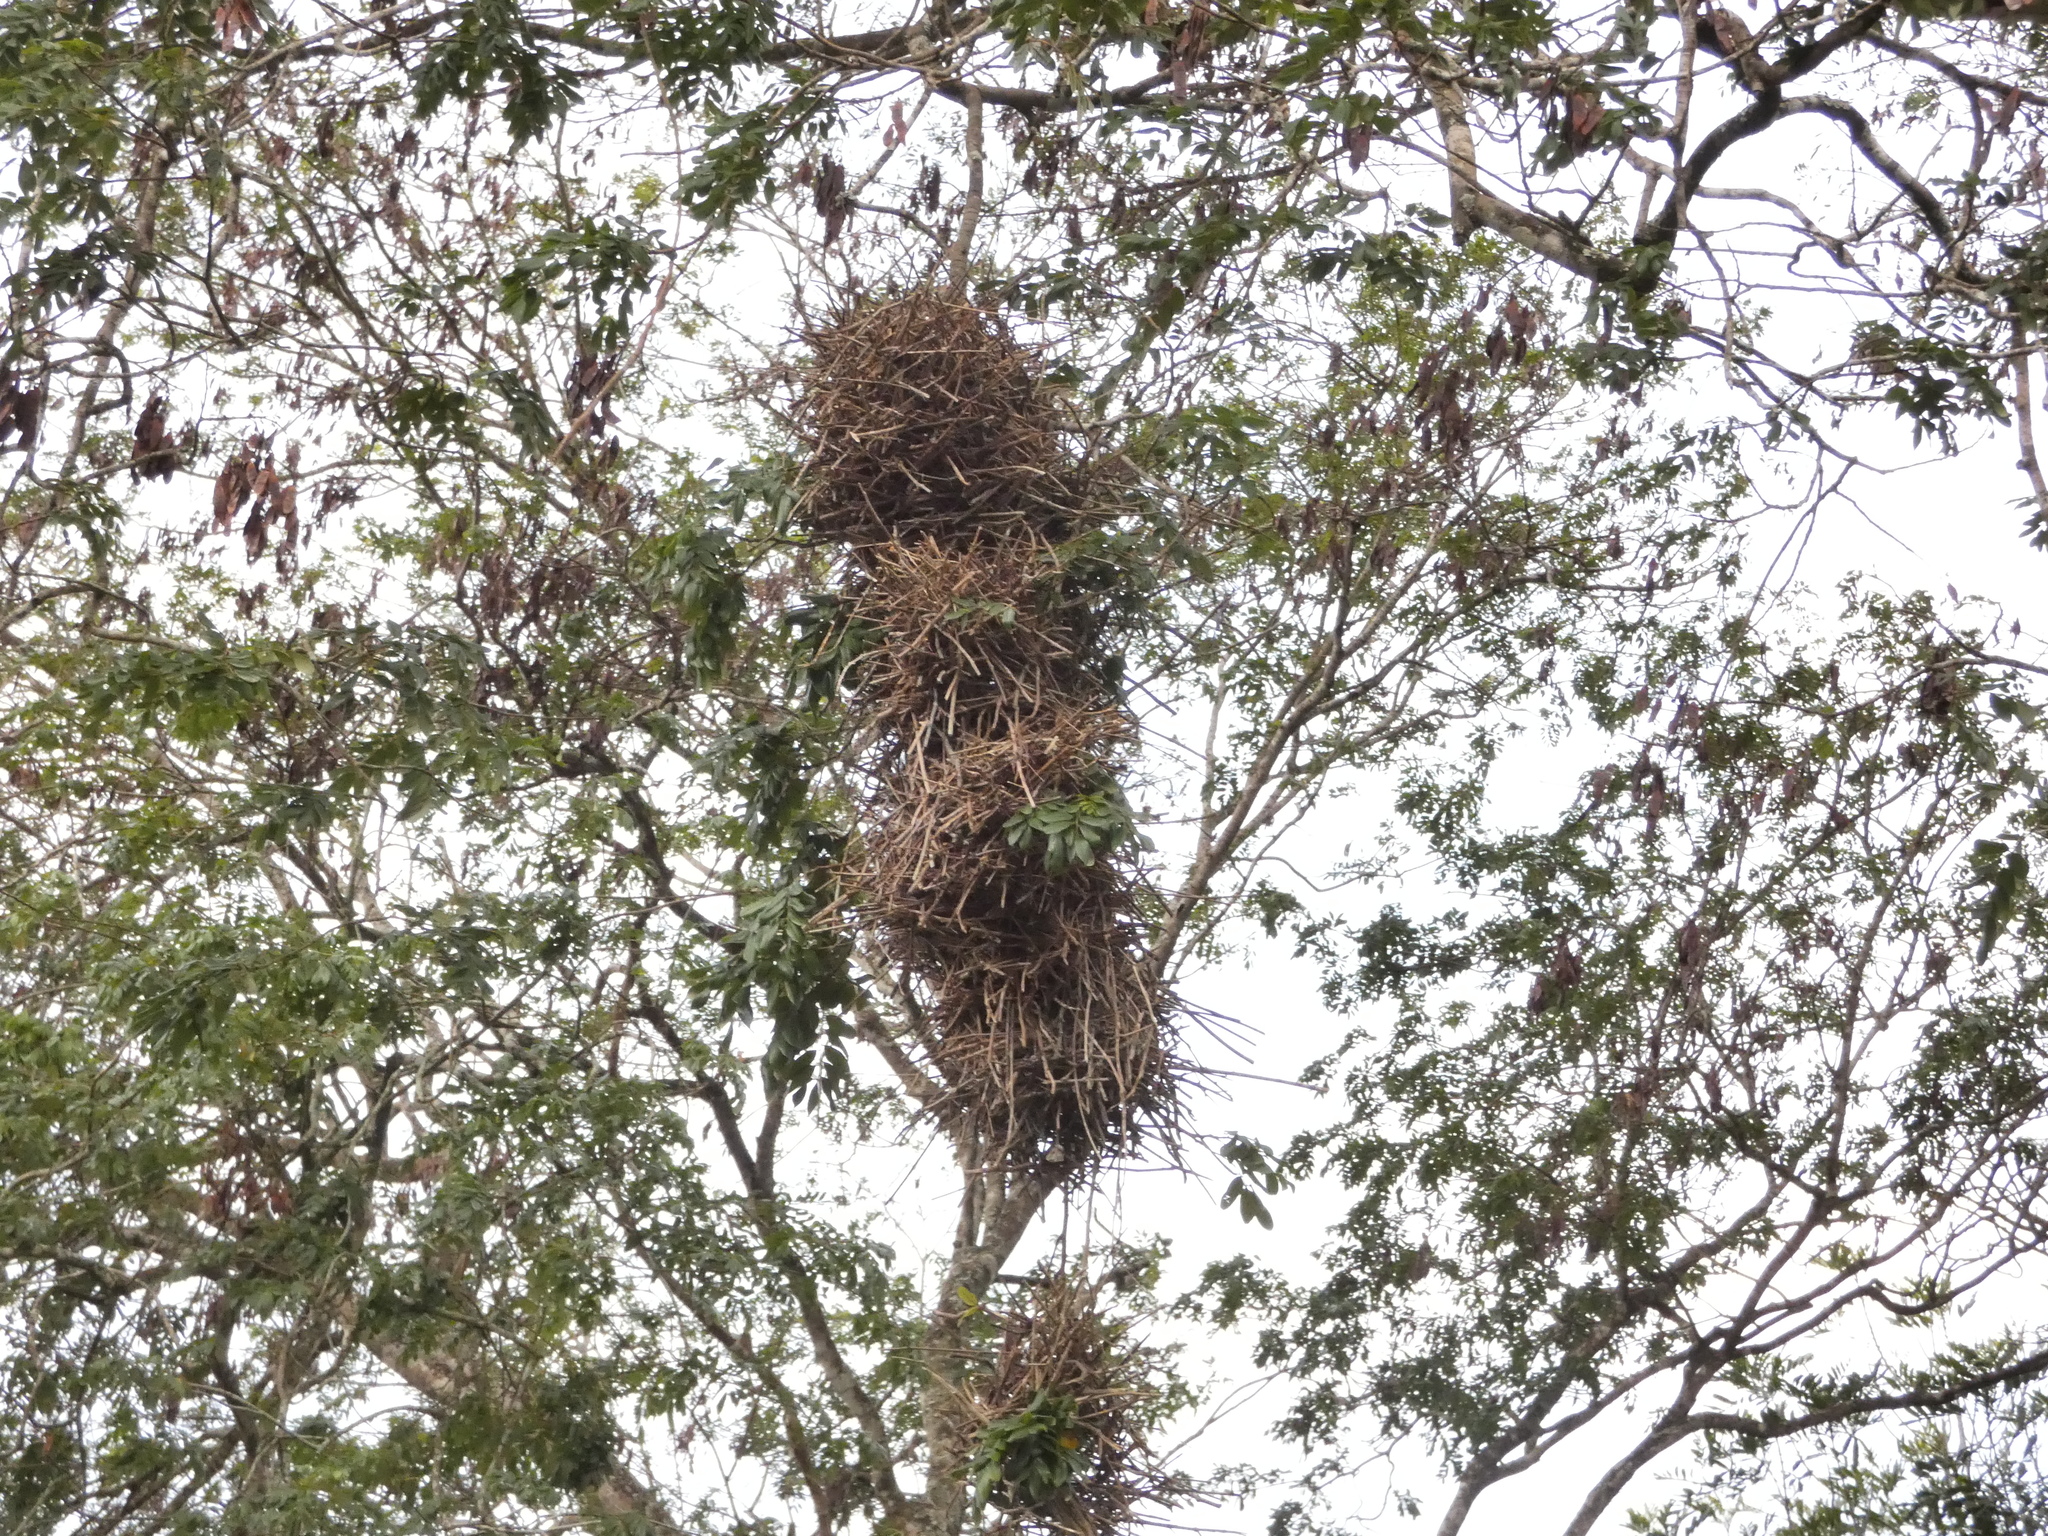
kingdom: Animalia
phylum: Chordata
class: Aves
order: Passeriformes
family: Furnariidae
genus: Phacellodomus
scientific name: Phacellodomus rufifrons
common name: Rufous-fronted thornbird
